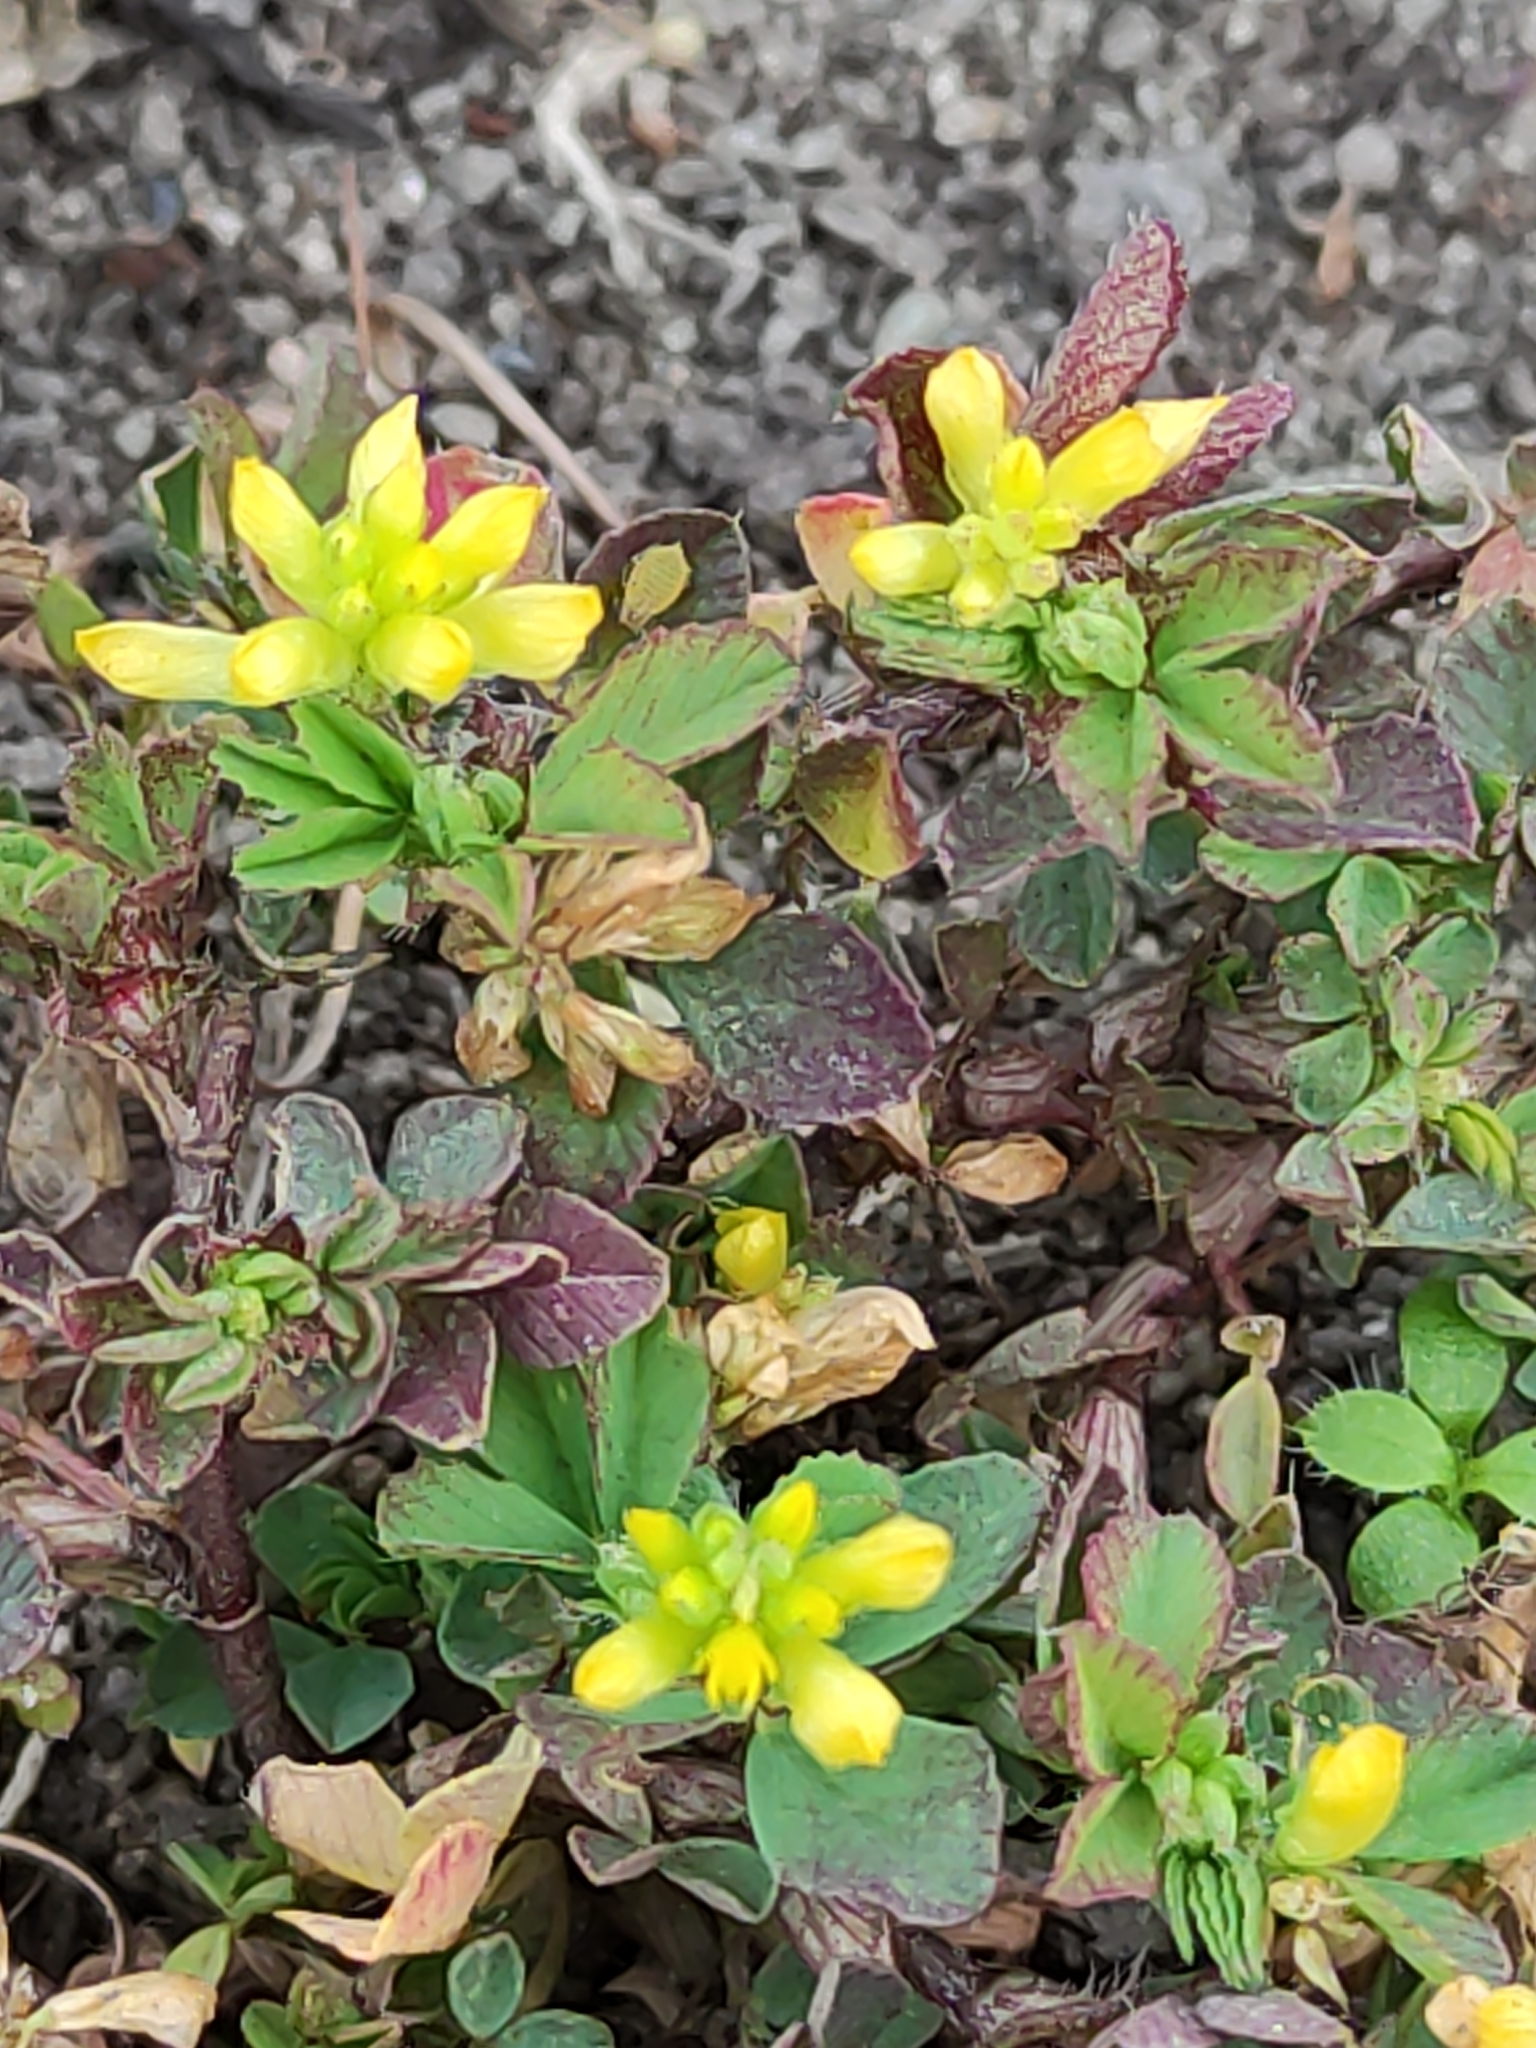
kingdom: Plantae
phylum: Tracheophyta
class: Magnoliopsida
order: Fabales
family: Fabaceae
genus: Trifolium
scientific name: Trifolium dubium
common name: Suckling clover
